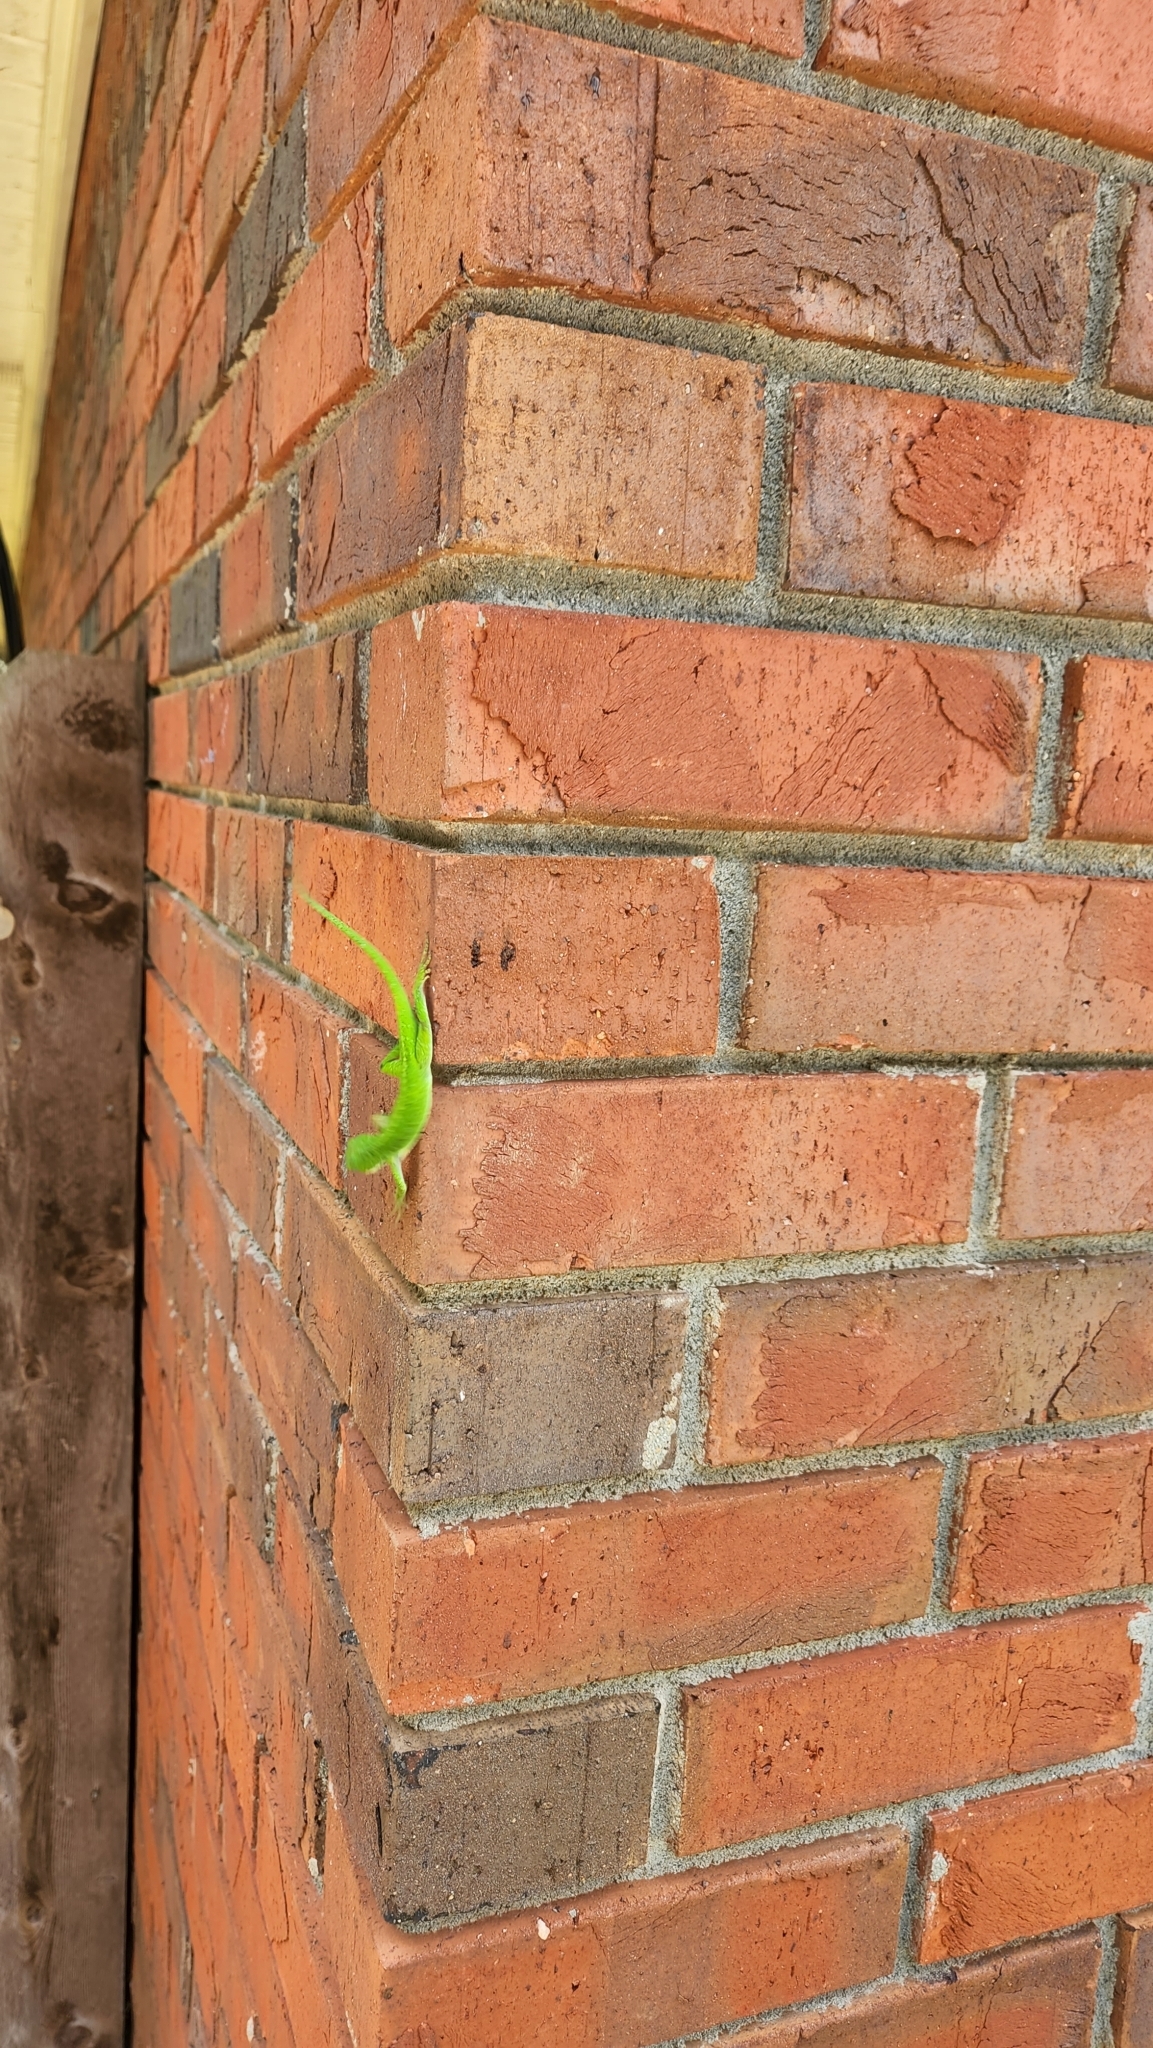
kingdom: Animalia
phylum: Chordata
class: Squamata
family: Dactyloidae
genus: Anolis
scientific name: Anolis carolinensis
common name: Green anole
